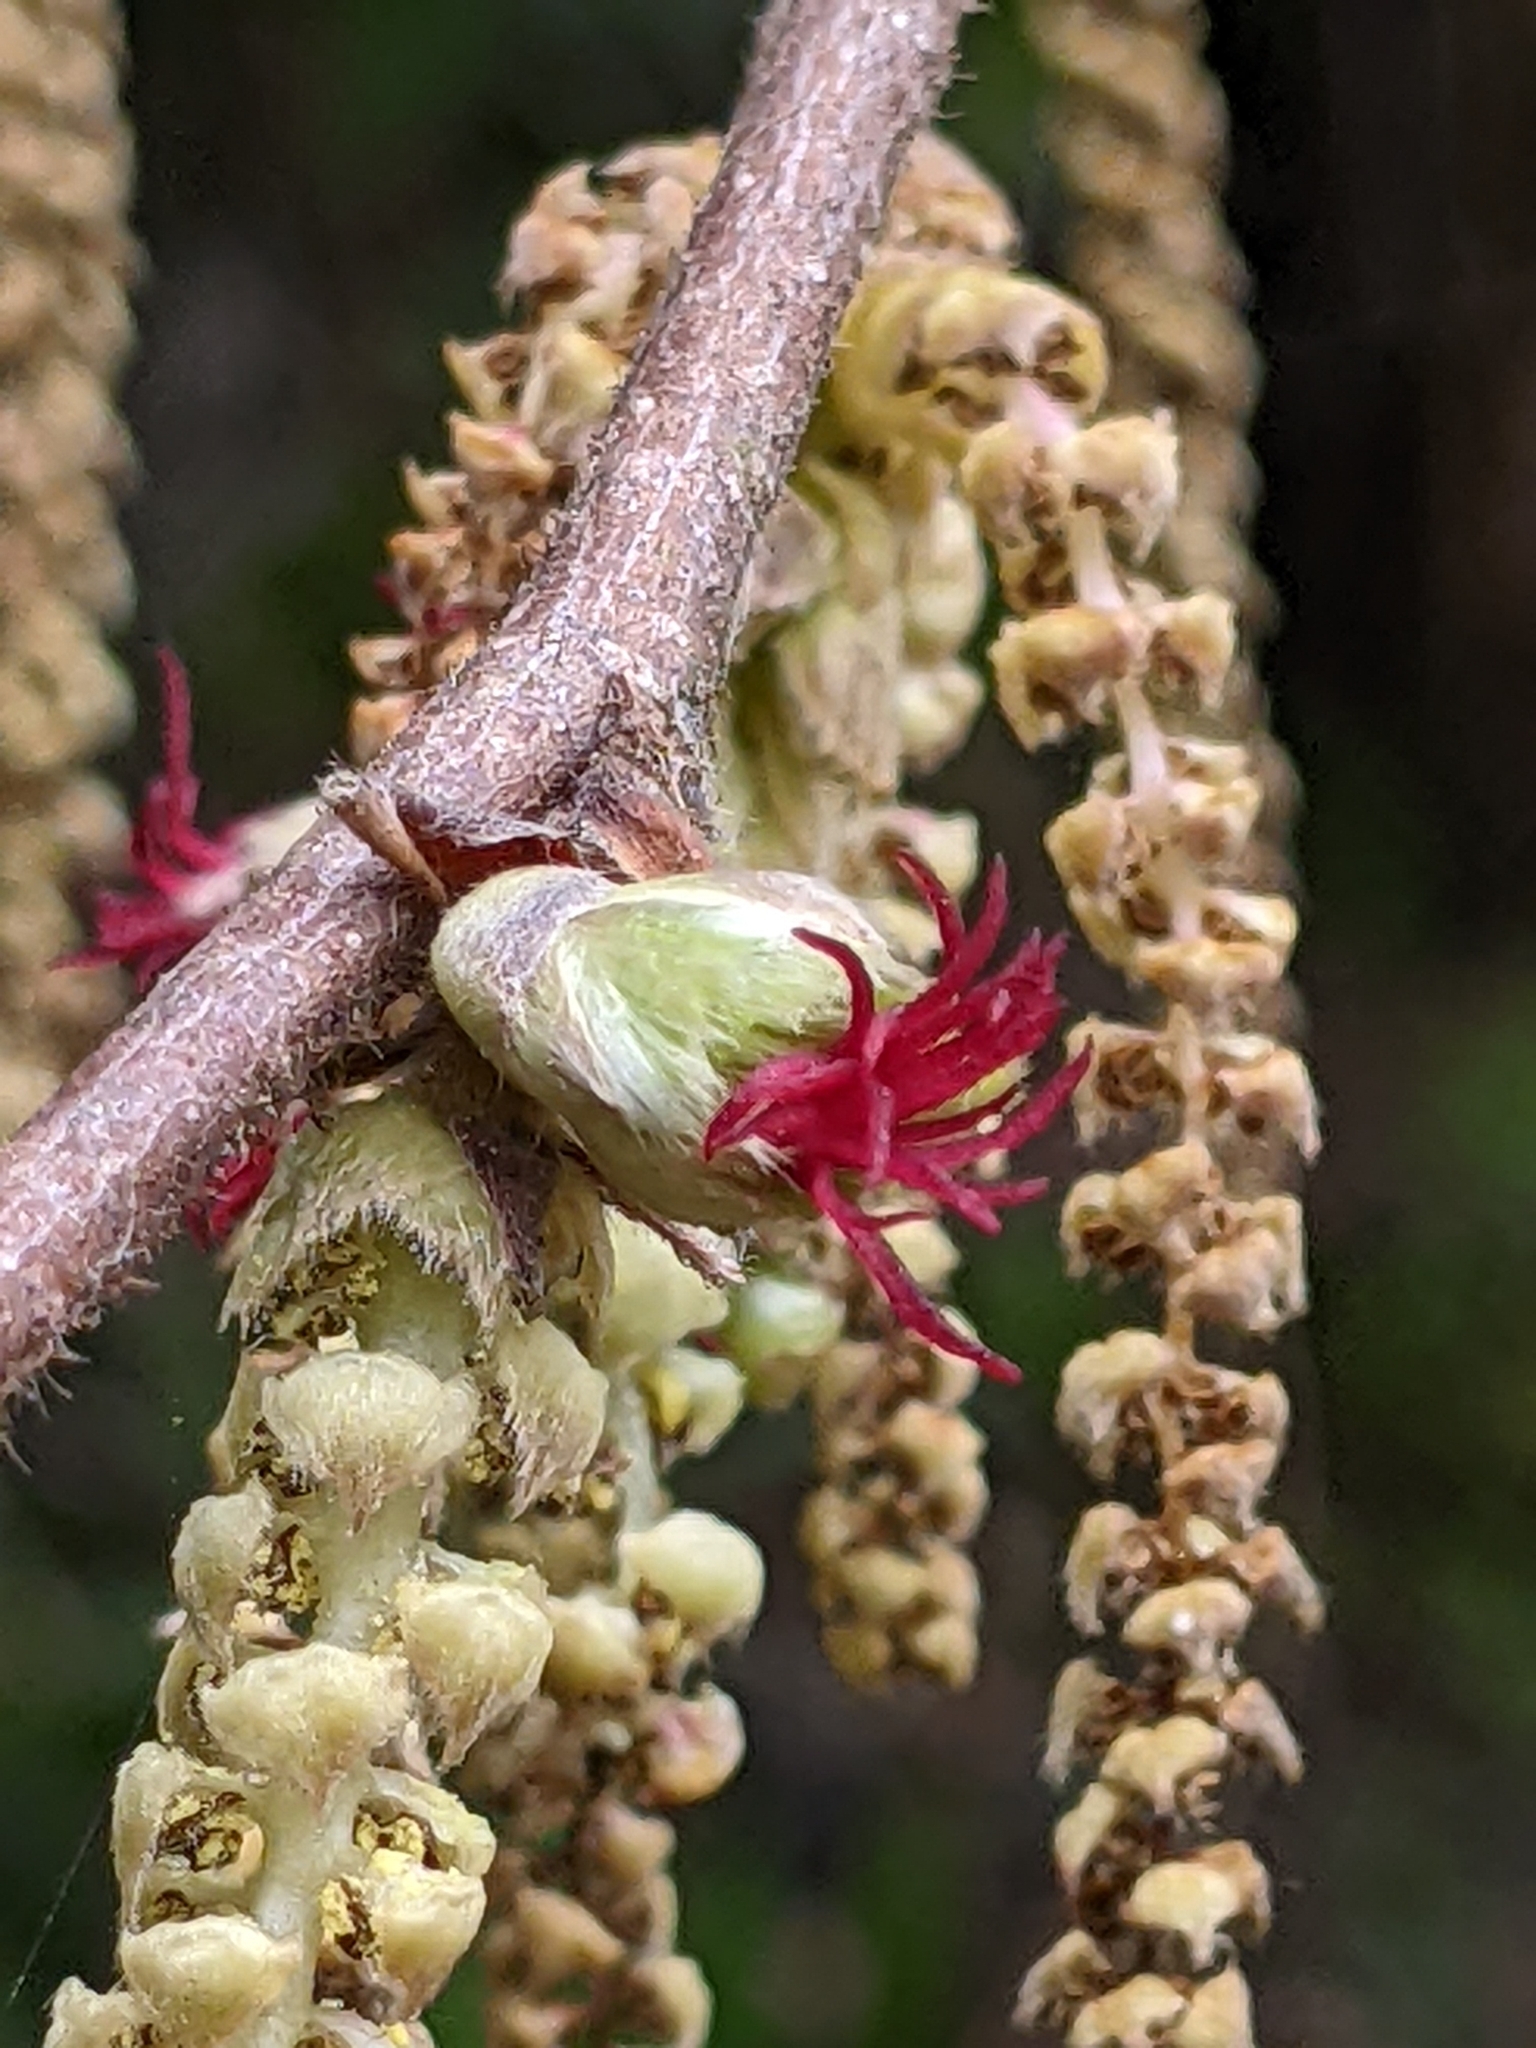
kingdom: Plantae
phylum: Tracheophyta
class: Magnoliopsida
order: Fagales
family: Betulaceae
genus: Corylus
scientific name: Corylus cornuta
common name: Beaked hazel
